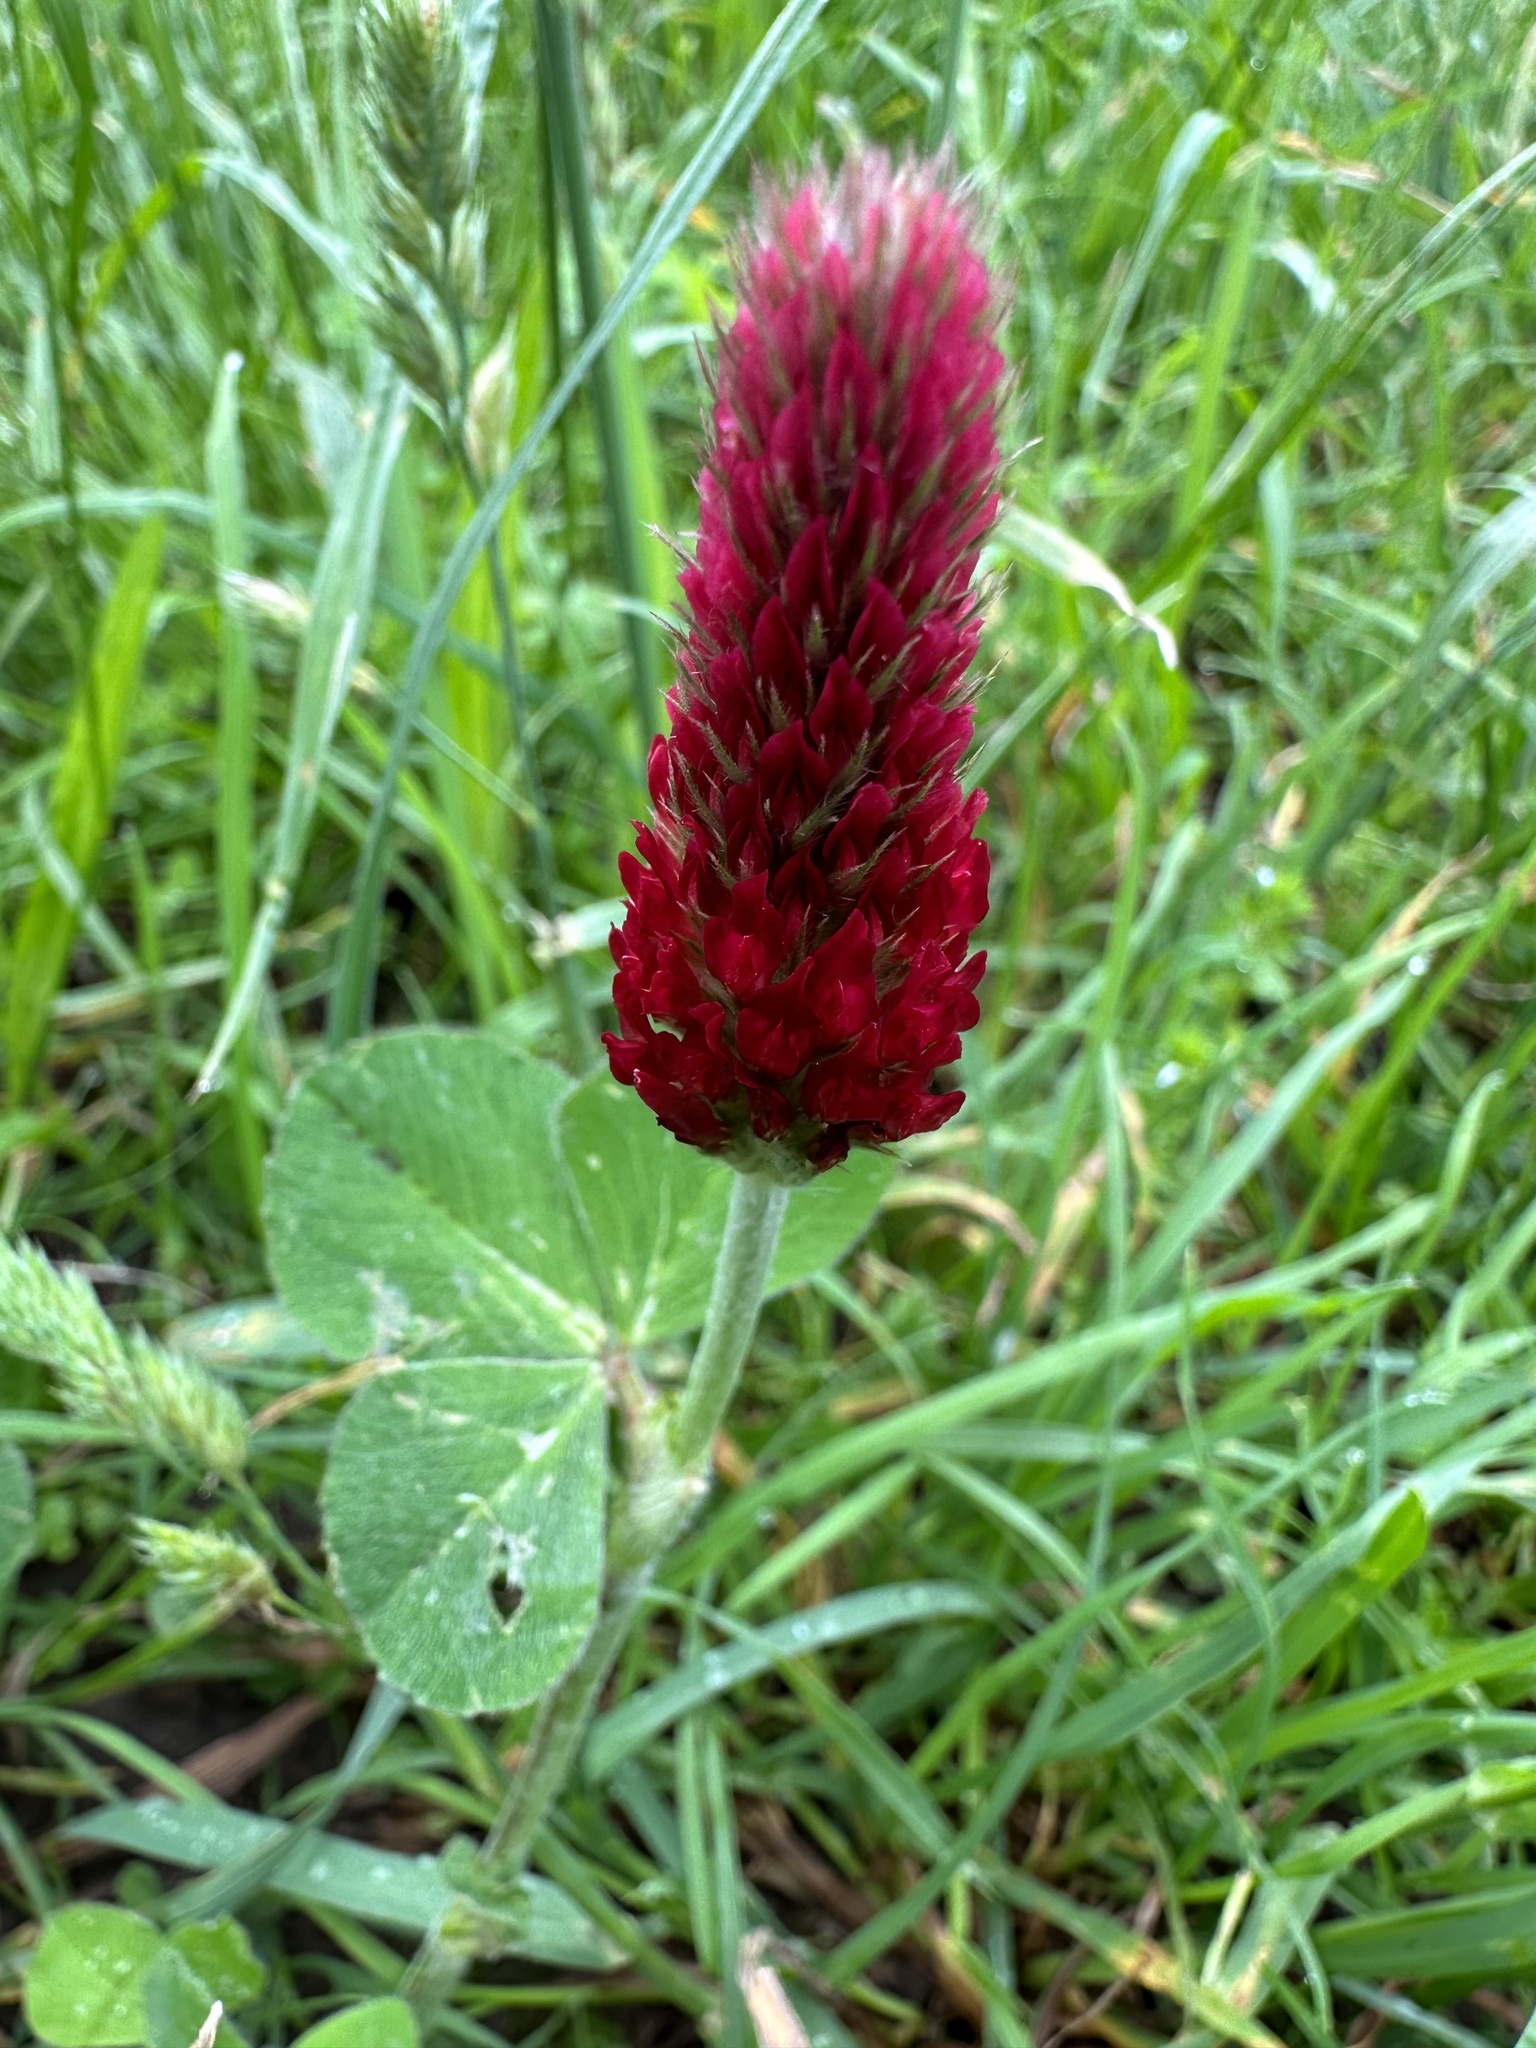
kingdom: Plantae
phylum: Tracheophyta
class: Magnoliopsida
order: Fabales
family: Fabaceae
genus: Trifolium
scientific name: Trifolium incarnatum
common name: Crimson clover
